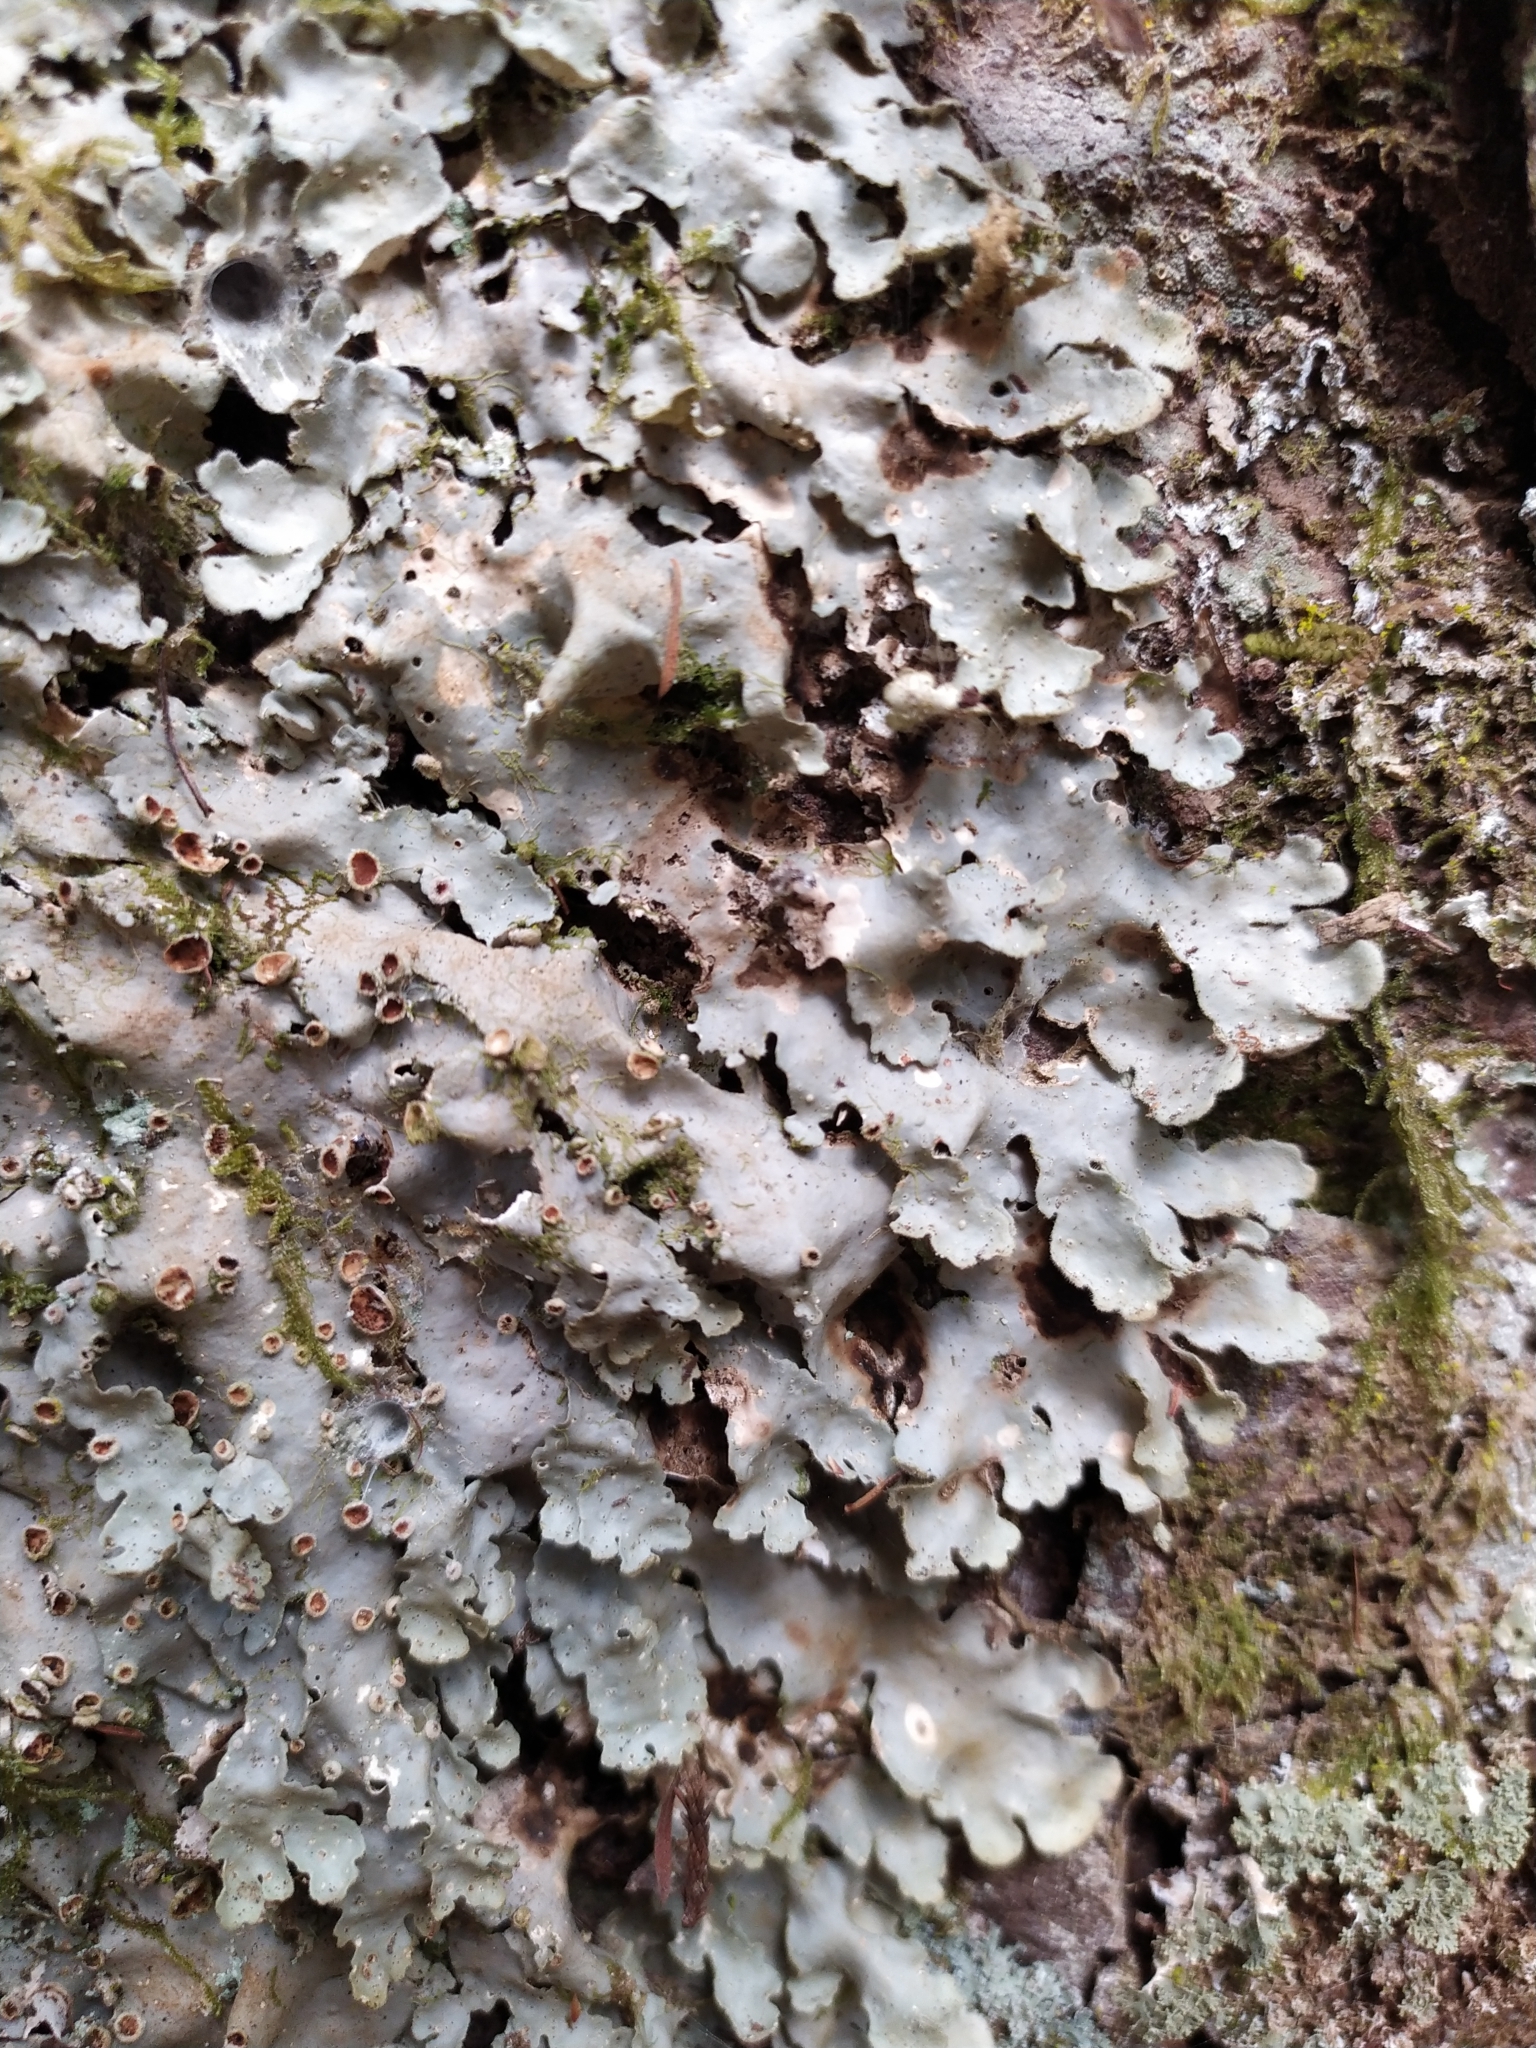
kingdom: Fungi
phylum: Ascomycota
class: Lecanoromycetes
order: Peltigerales
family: Lobariaceae
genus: Pseudocyphellaria
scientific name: Pseudocyphellaria coriacea
